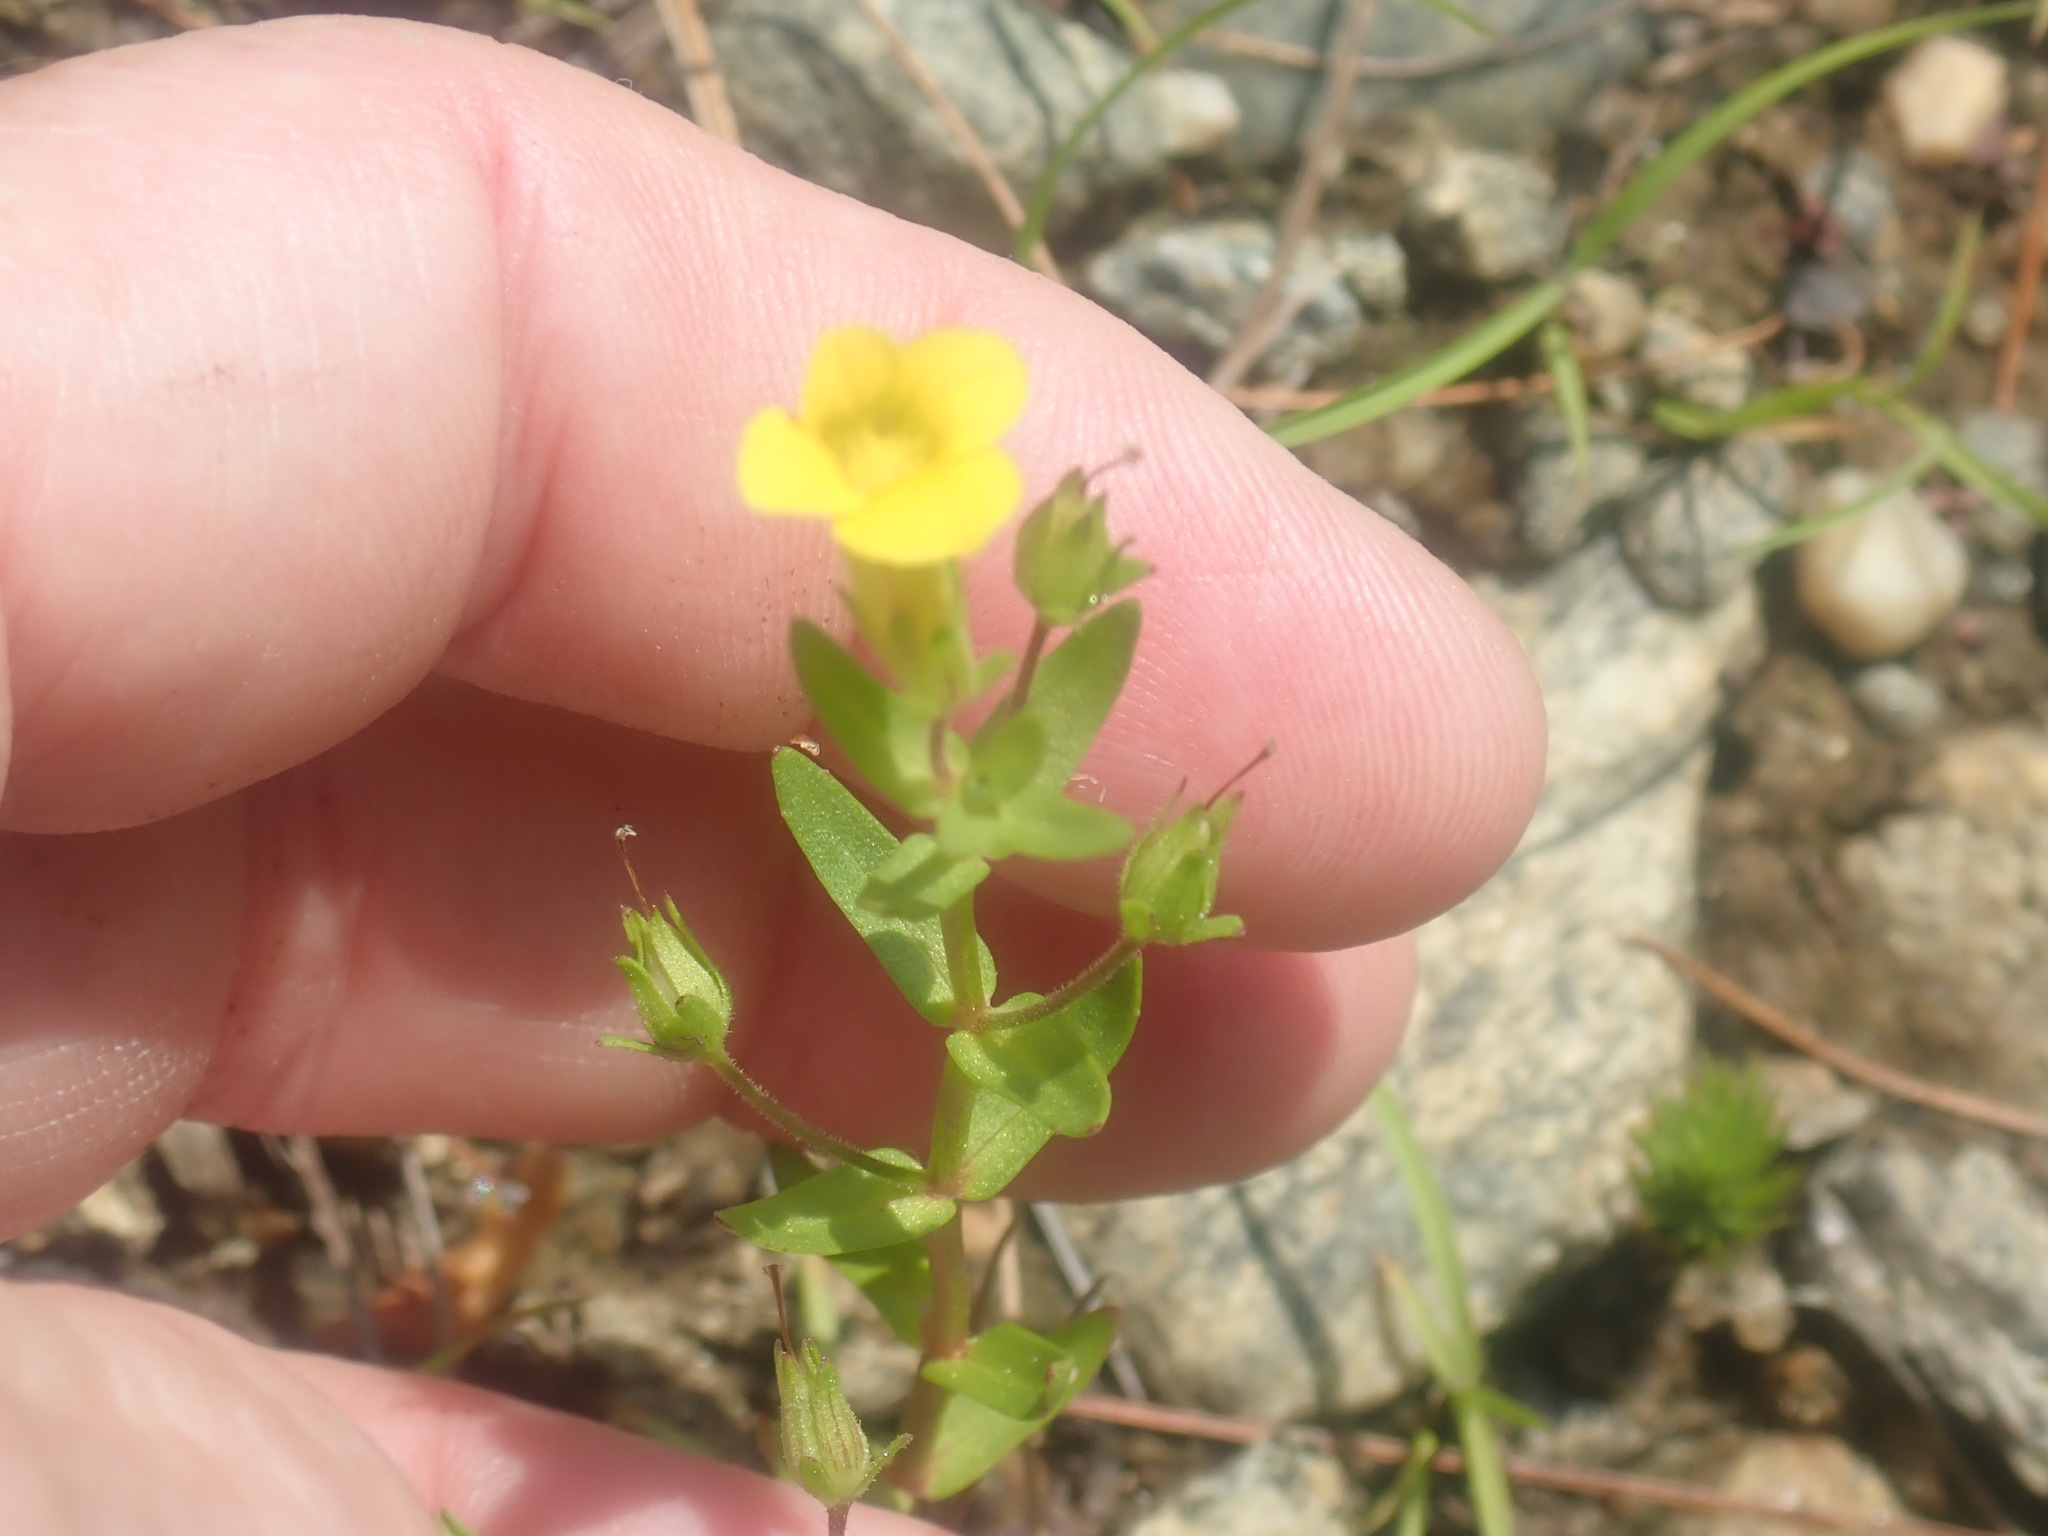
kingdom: Plantae
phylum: Tracheophyta
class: Magnoliopsida
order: Lamiales
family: Plantaginaceae
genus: Gratiola
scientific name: Gratiola lutea
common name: Golden hedge-hyssop
